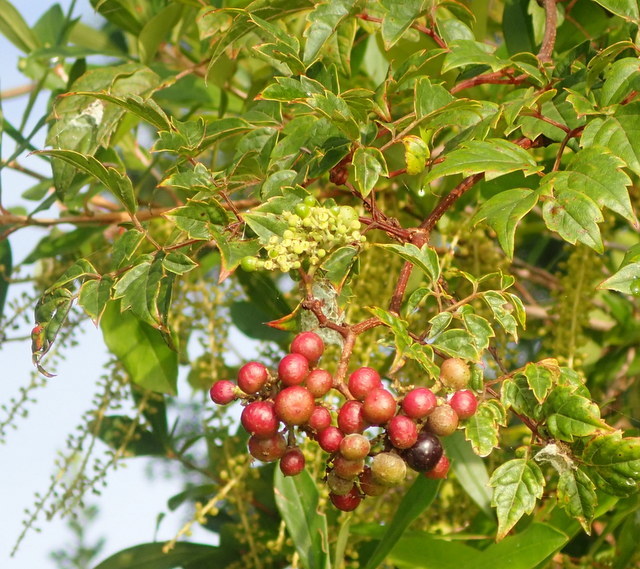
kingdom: Plantae
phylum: Tracheophyta
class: Magnoliopsida
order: Vitales
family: Vitaceae
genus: Nekemias
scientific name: Nekemias arborea
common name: Peppervine
